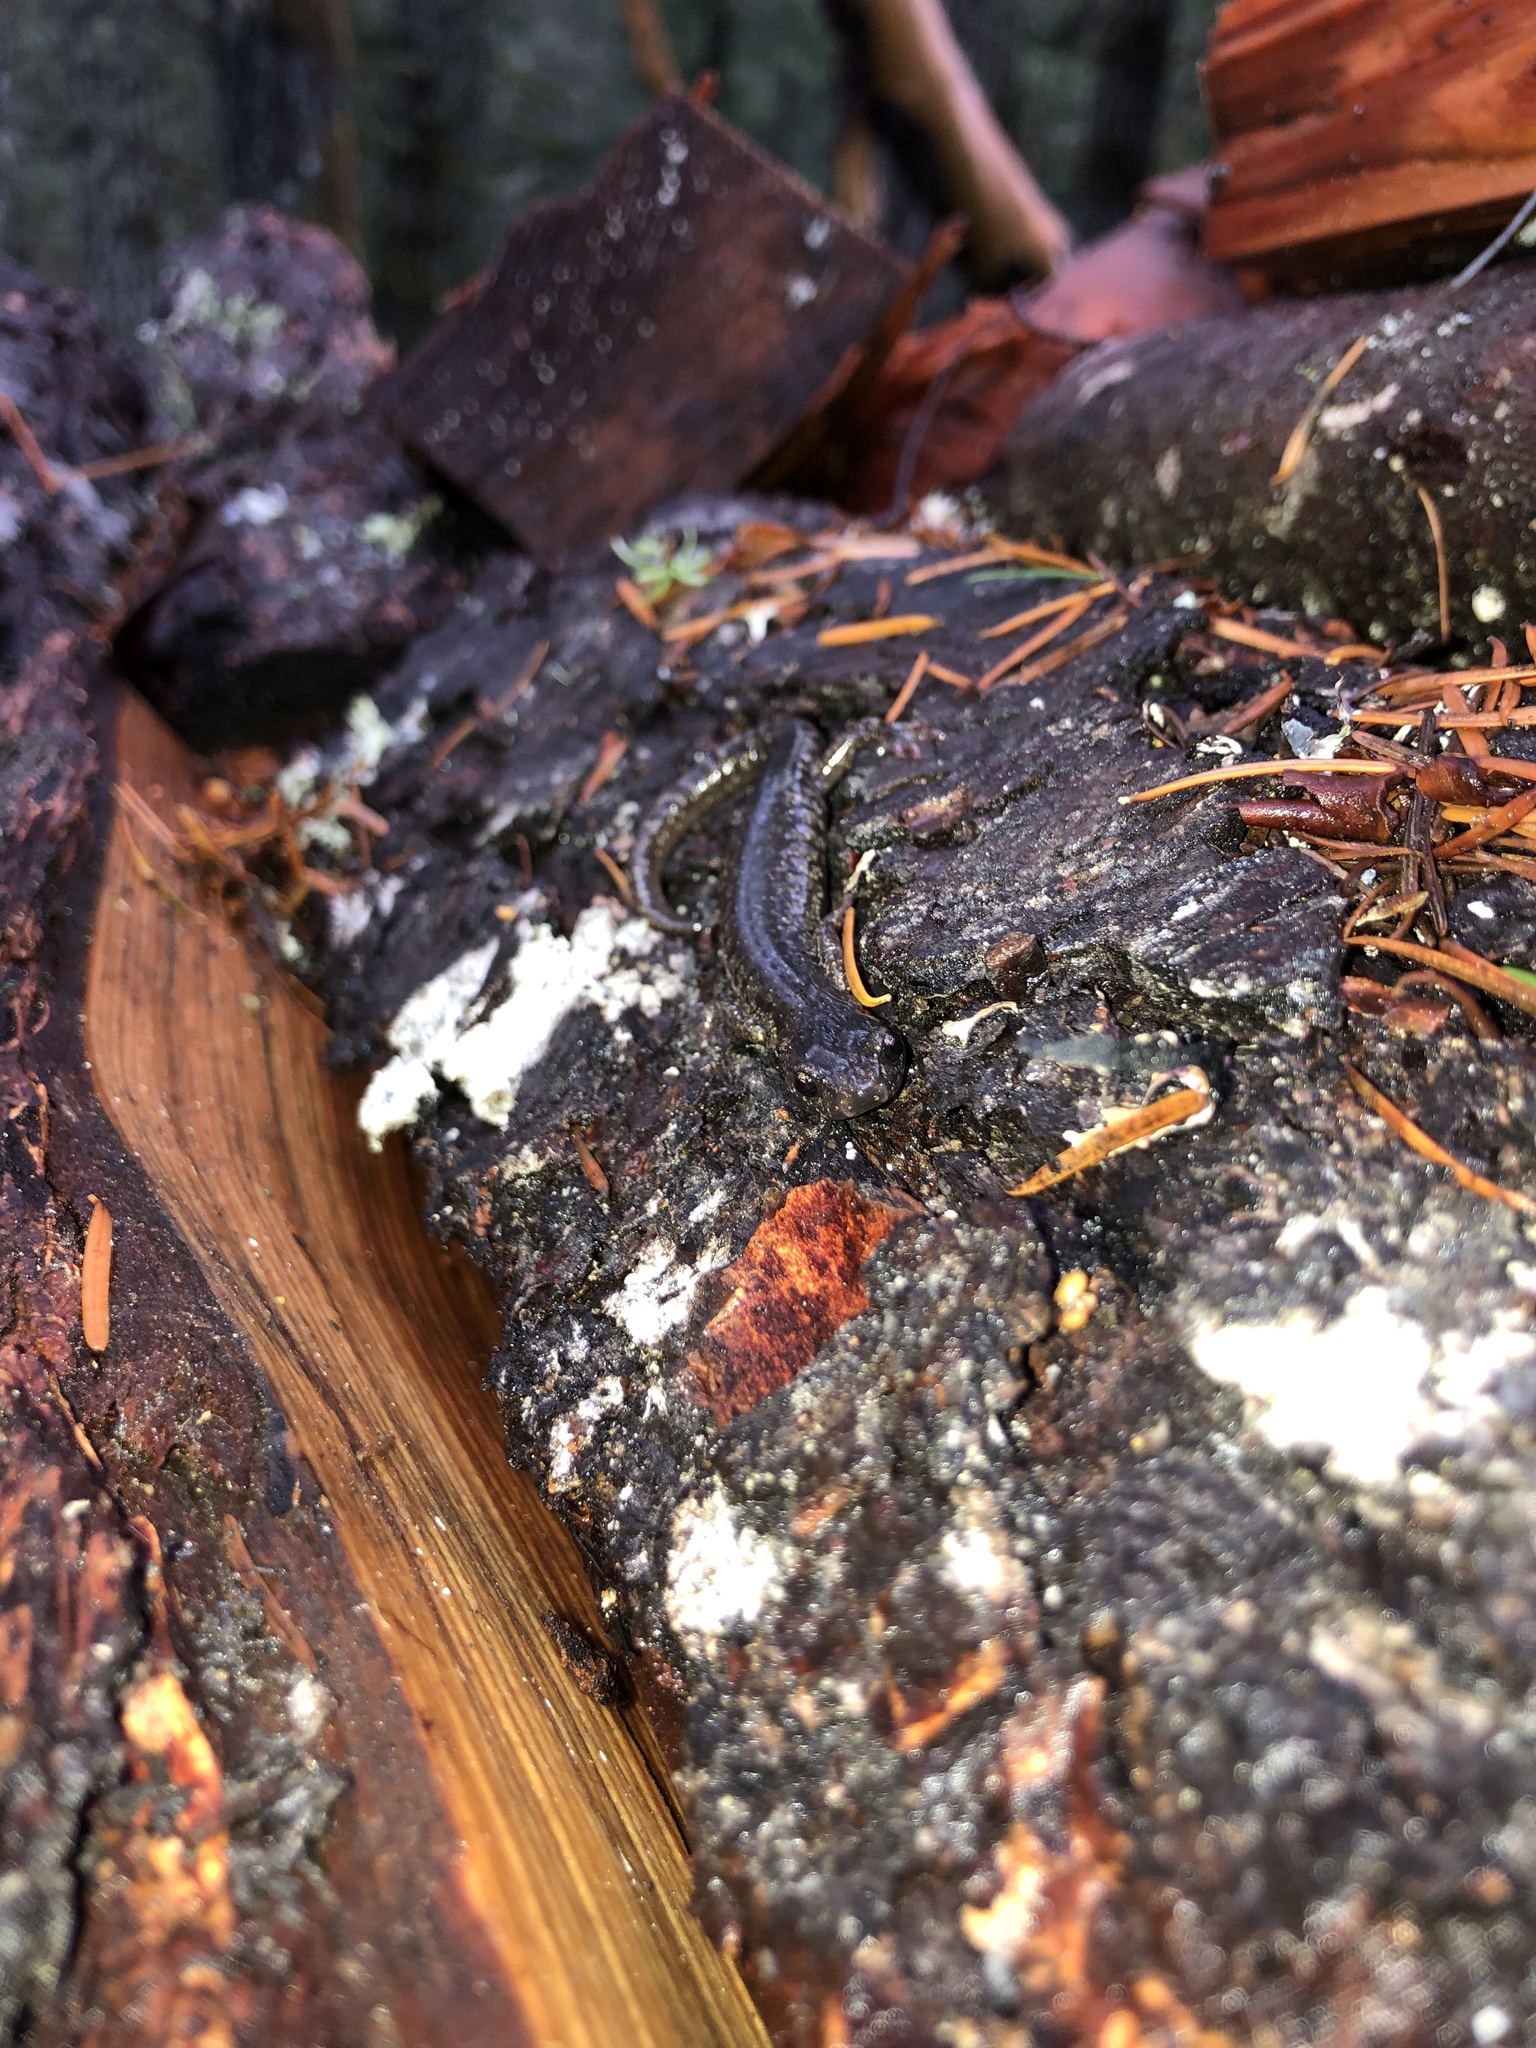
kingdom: Animalia
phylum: Chordata
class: Amphibia
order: Caudata
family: Plethodontidae
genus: Aneides
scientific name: Aneides vagrans
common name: Wandering salamander
